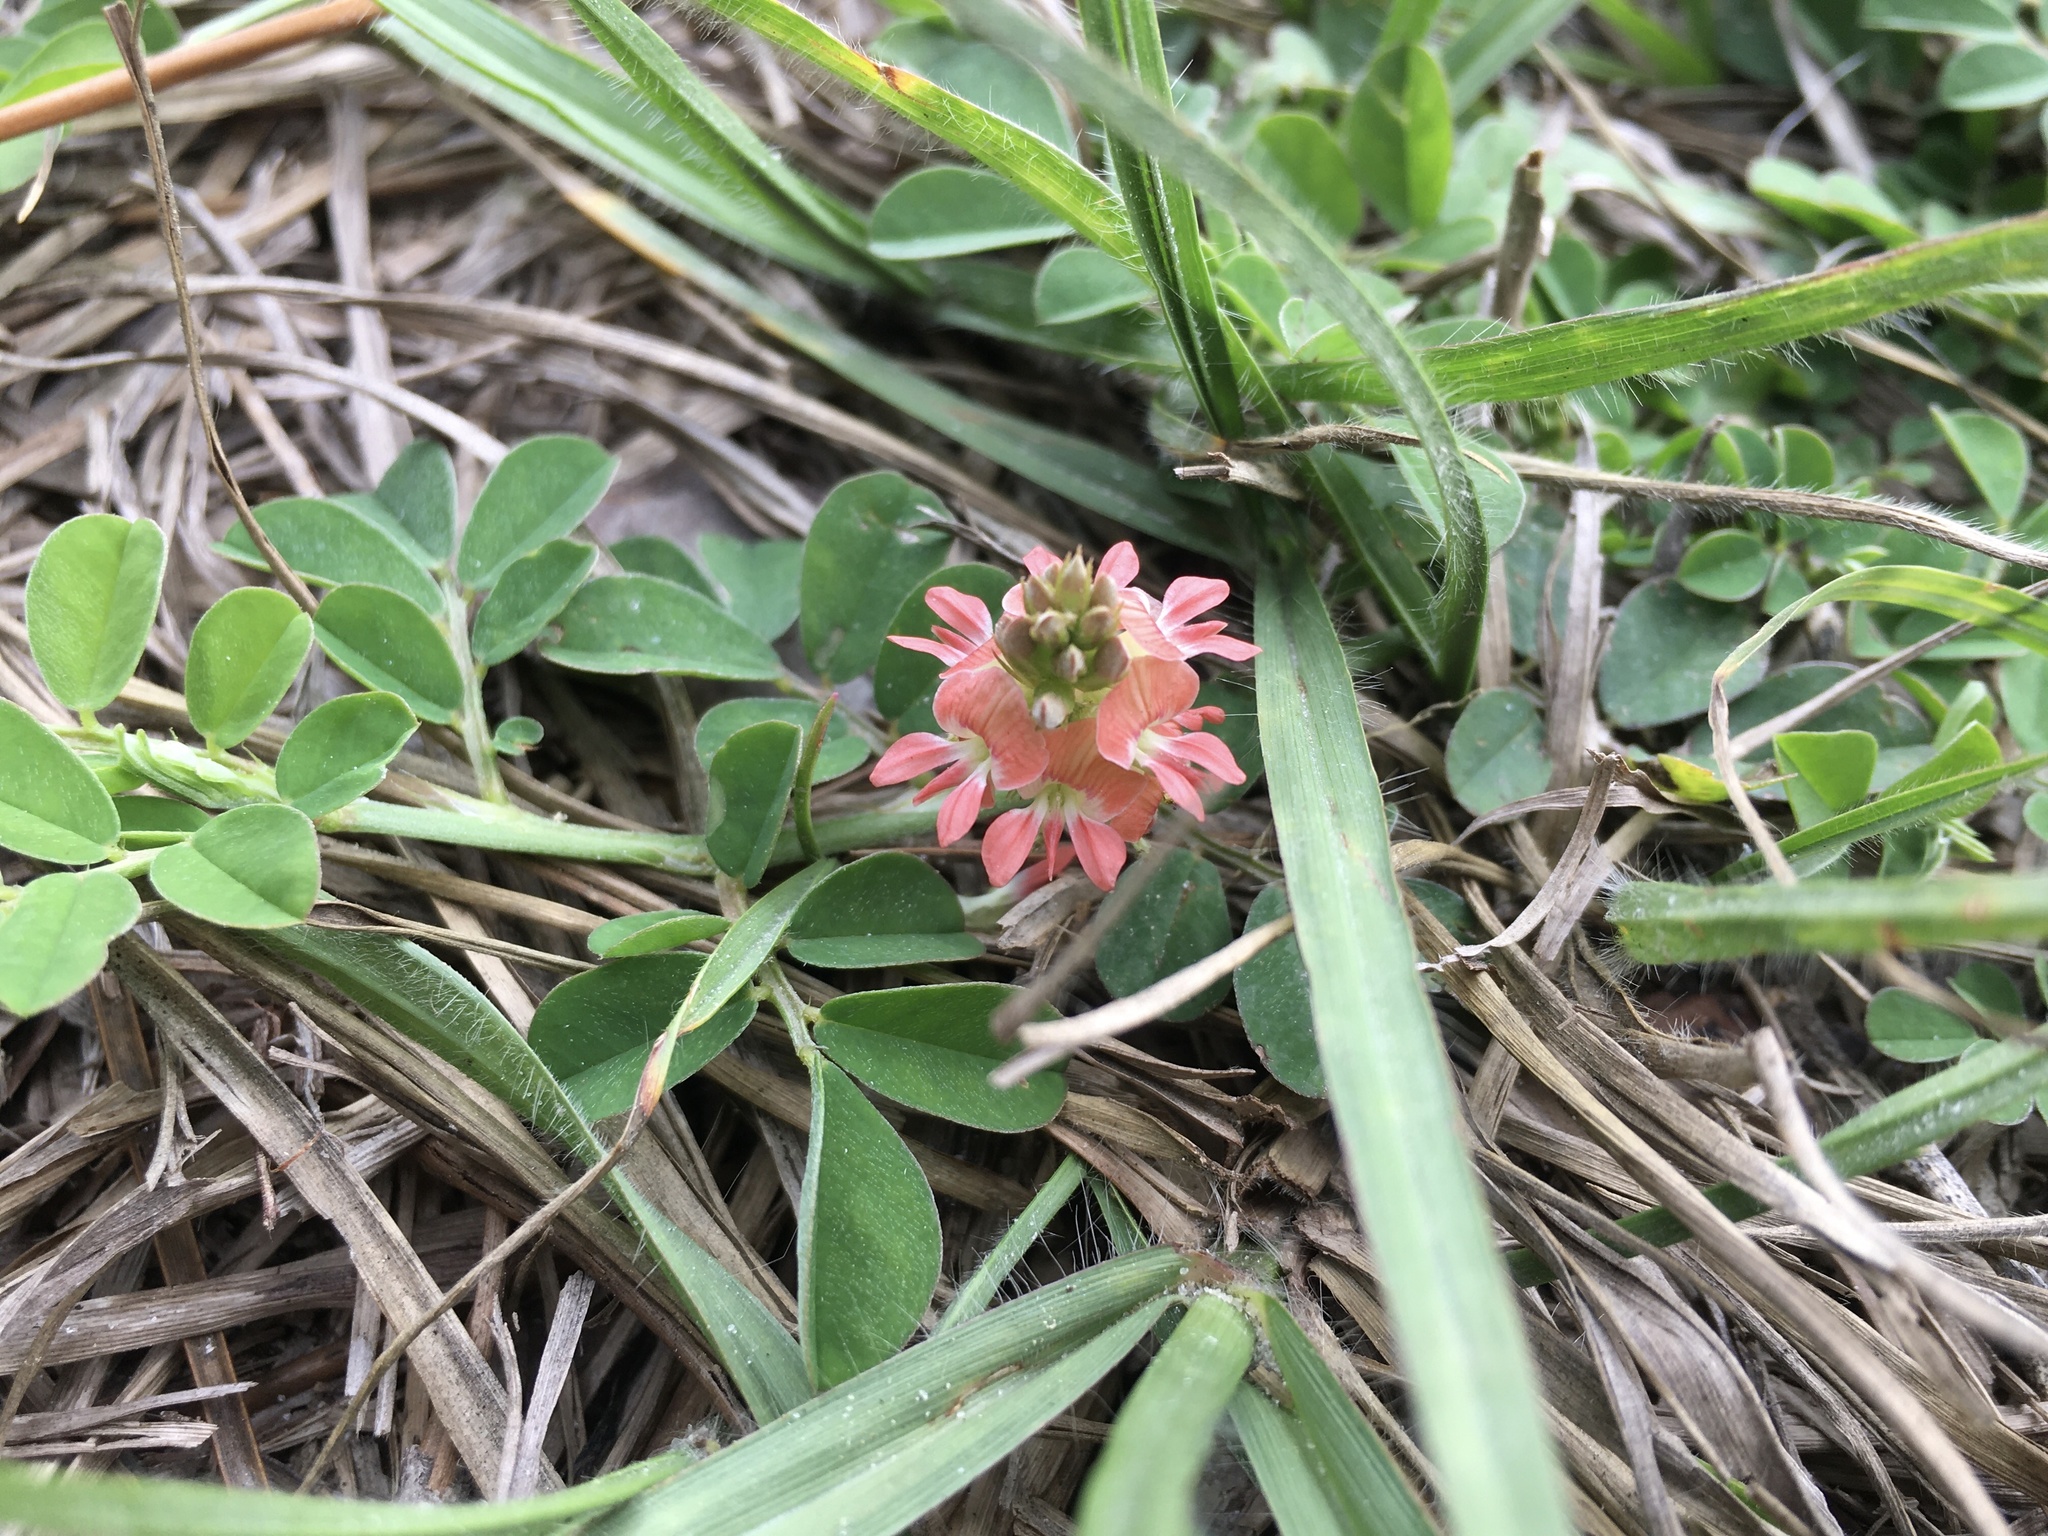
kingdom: Plantae
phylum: Tracheophyta
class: Magnoliopsida
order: Fabales
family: Fabaceae
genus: Indigofera
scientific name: Indigofera spicata
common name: Creeping indigo
